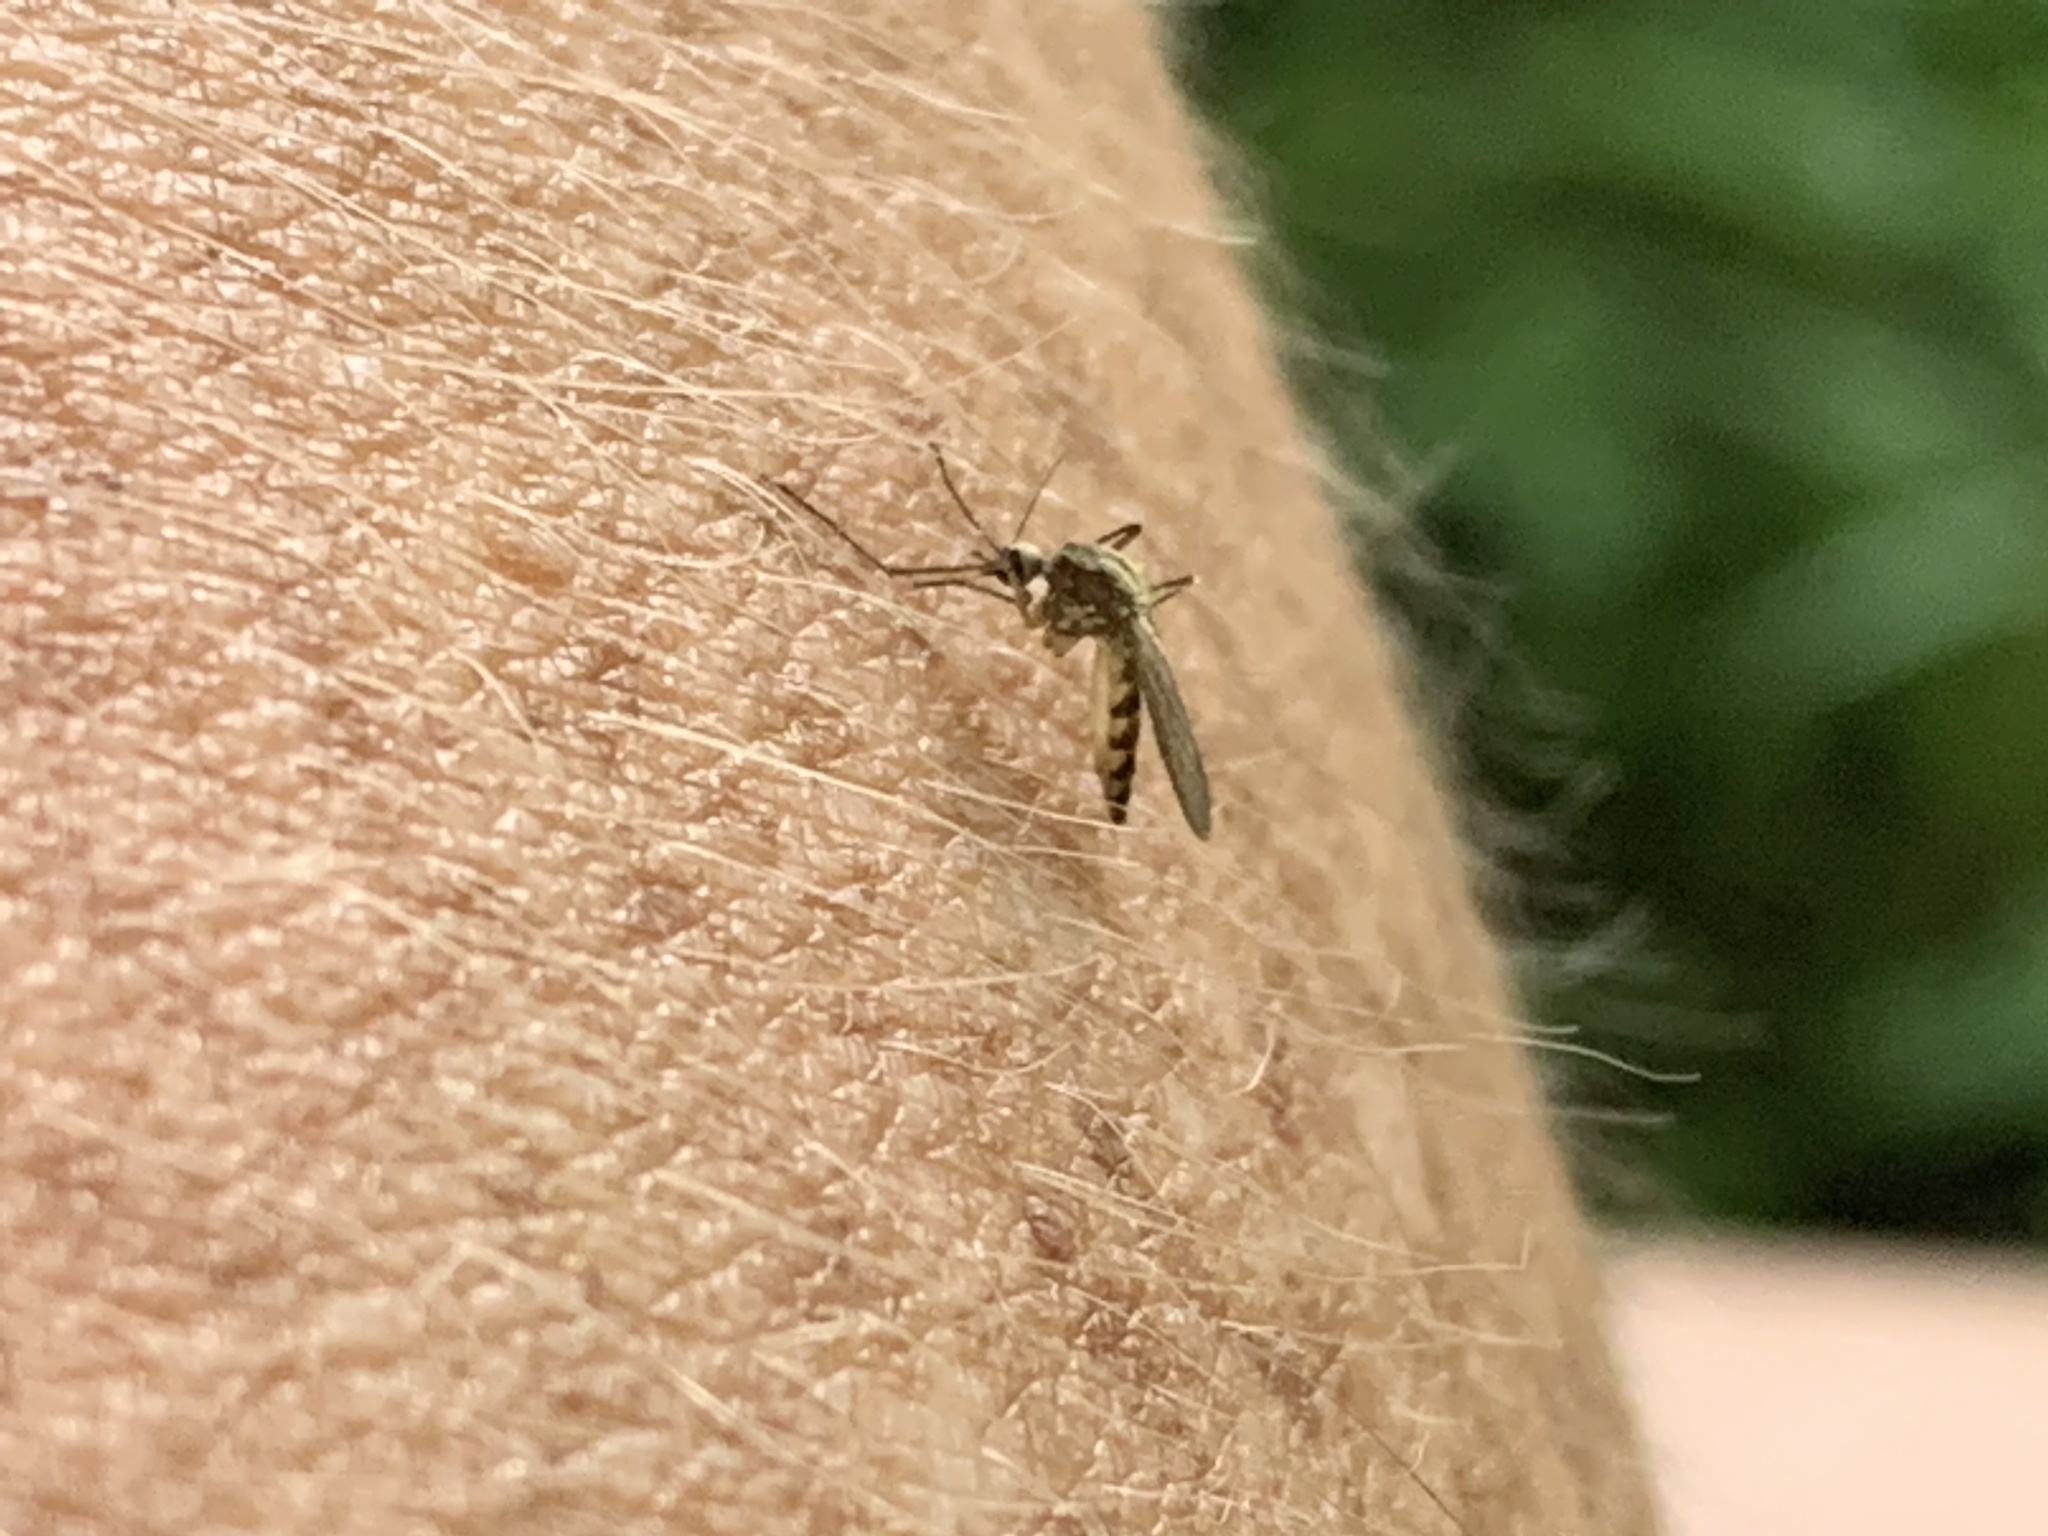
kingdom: Animalia
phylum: Arthropoda
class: Insecta
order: Diptera
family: Culicidae
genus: Aedes
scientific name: Aedes trivittatus
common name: Plains floodwater mosquito
